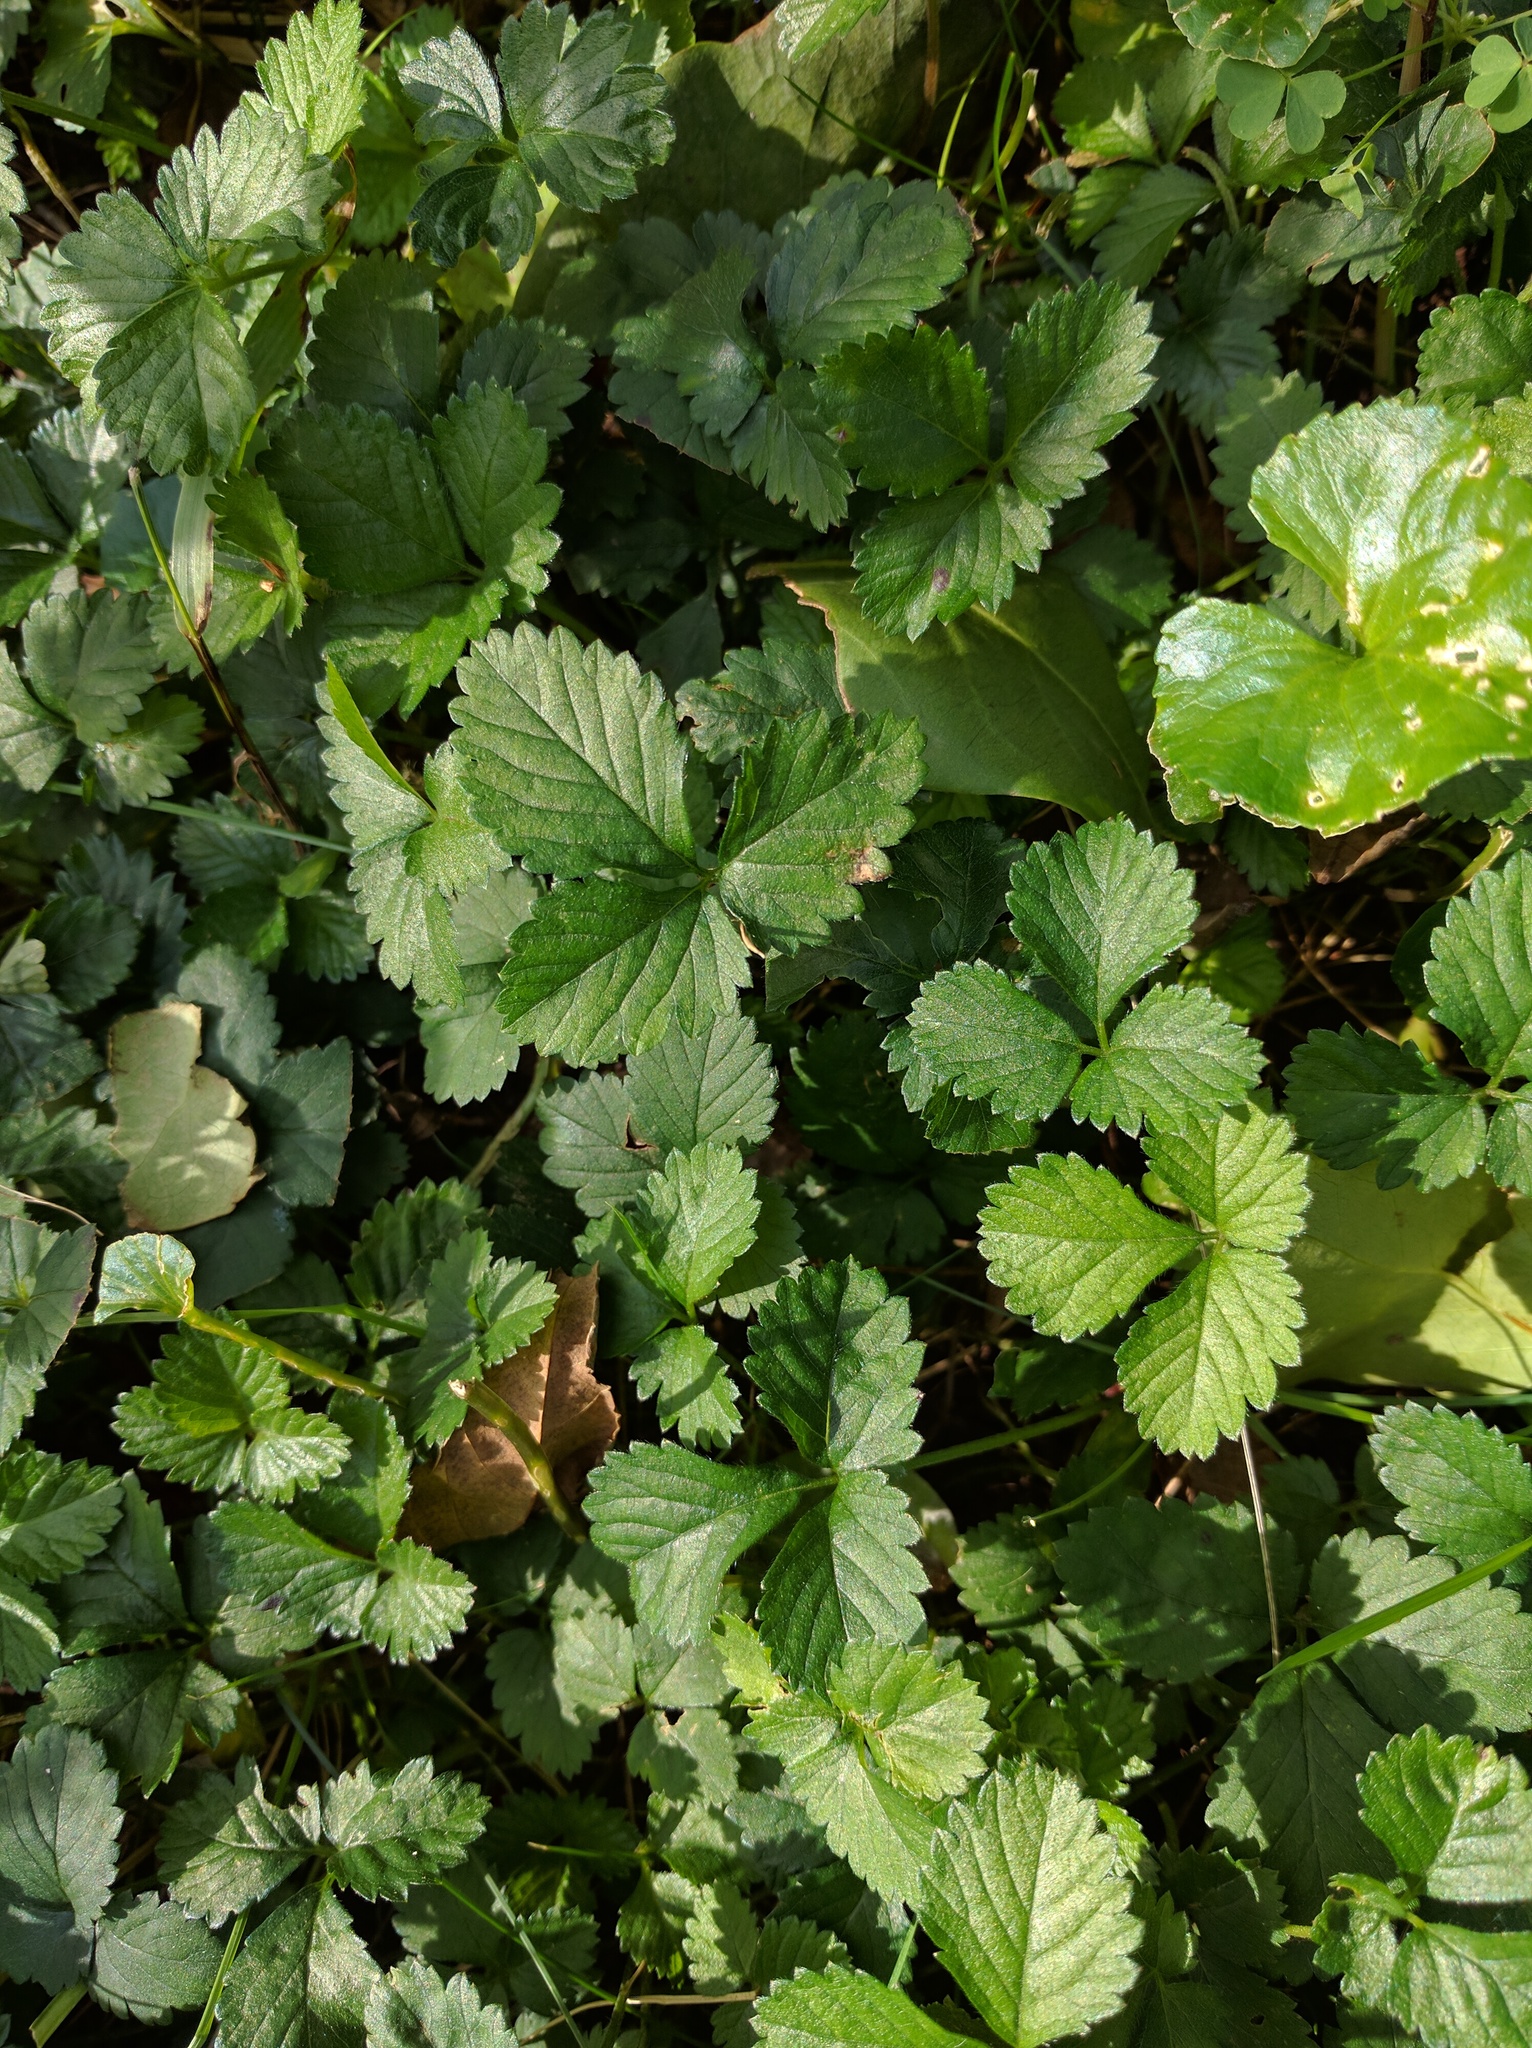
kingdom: Plantae
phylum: Tracheophyta
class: Magnoliopsida
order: Rosales
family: Rosaceae
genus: Potentilla
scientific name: Potentilla indica
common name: Yellow-flowered strawberry
